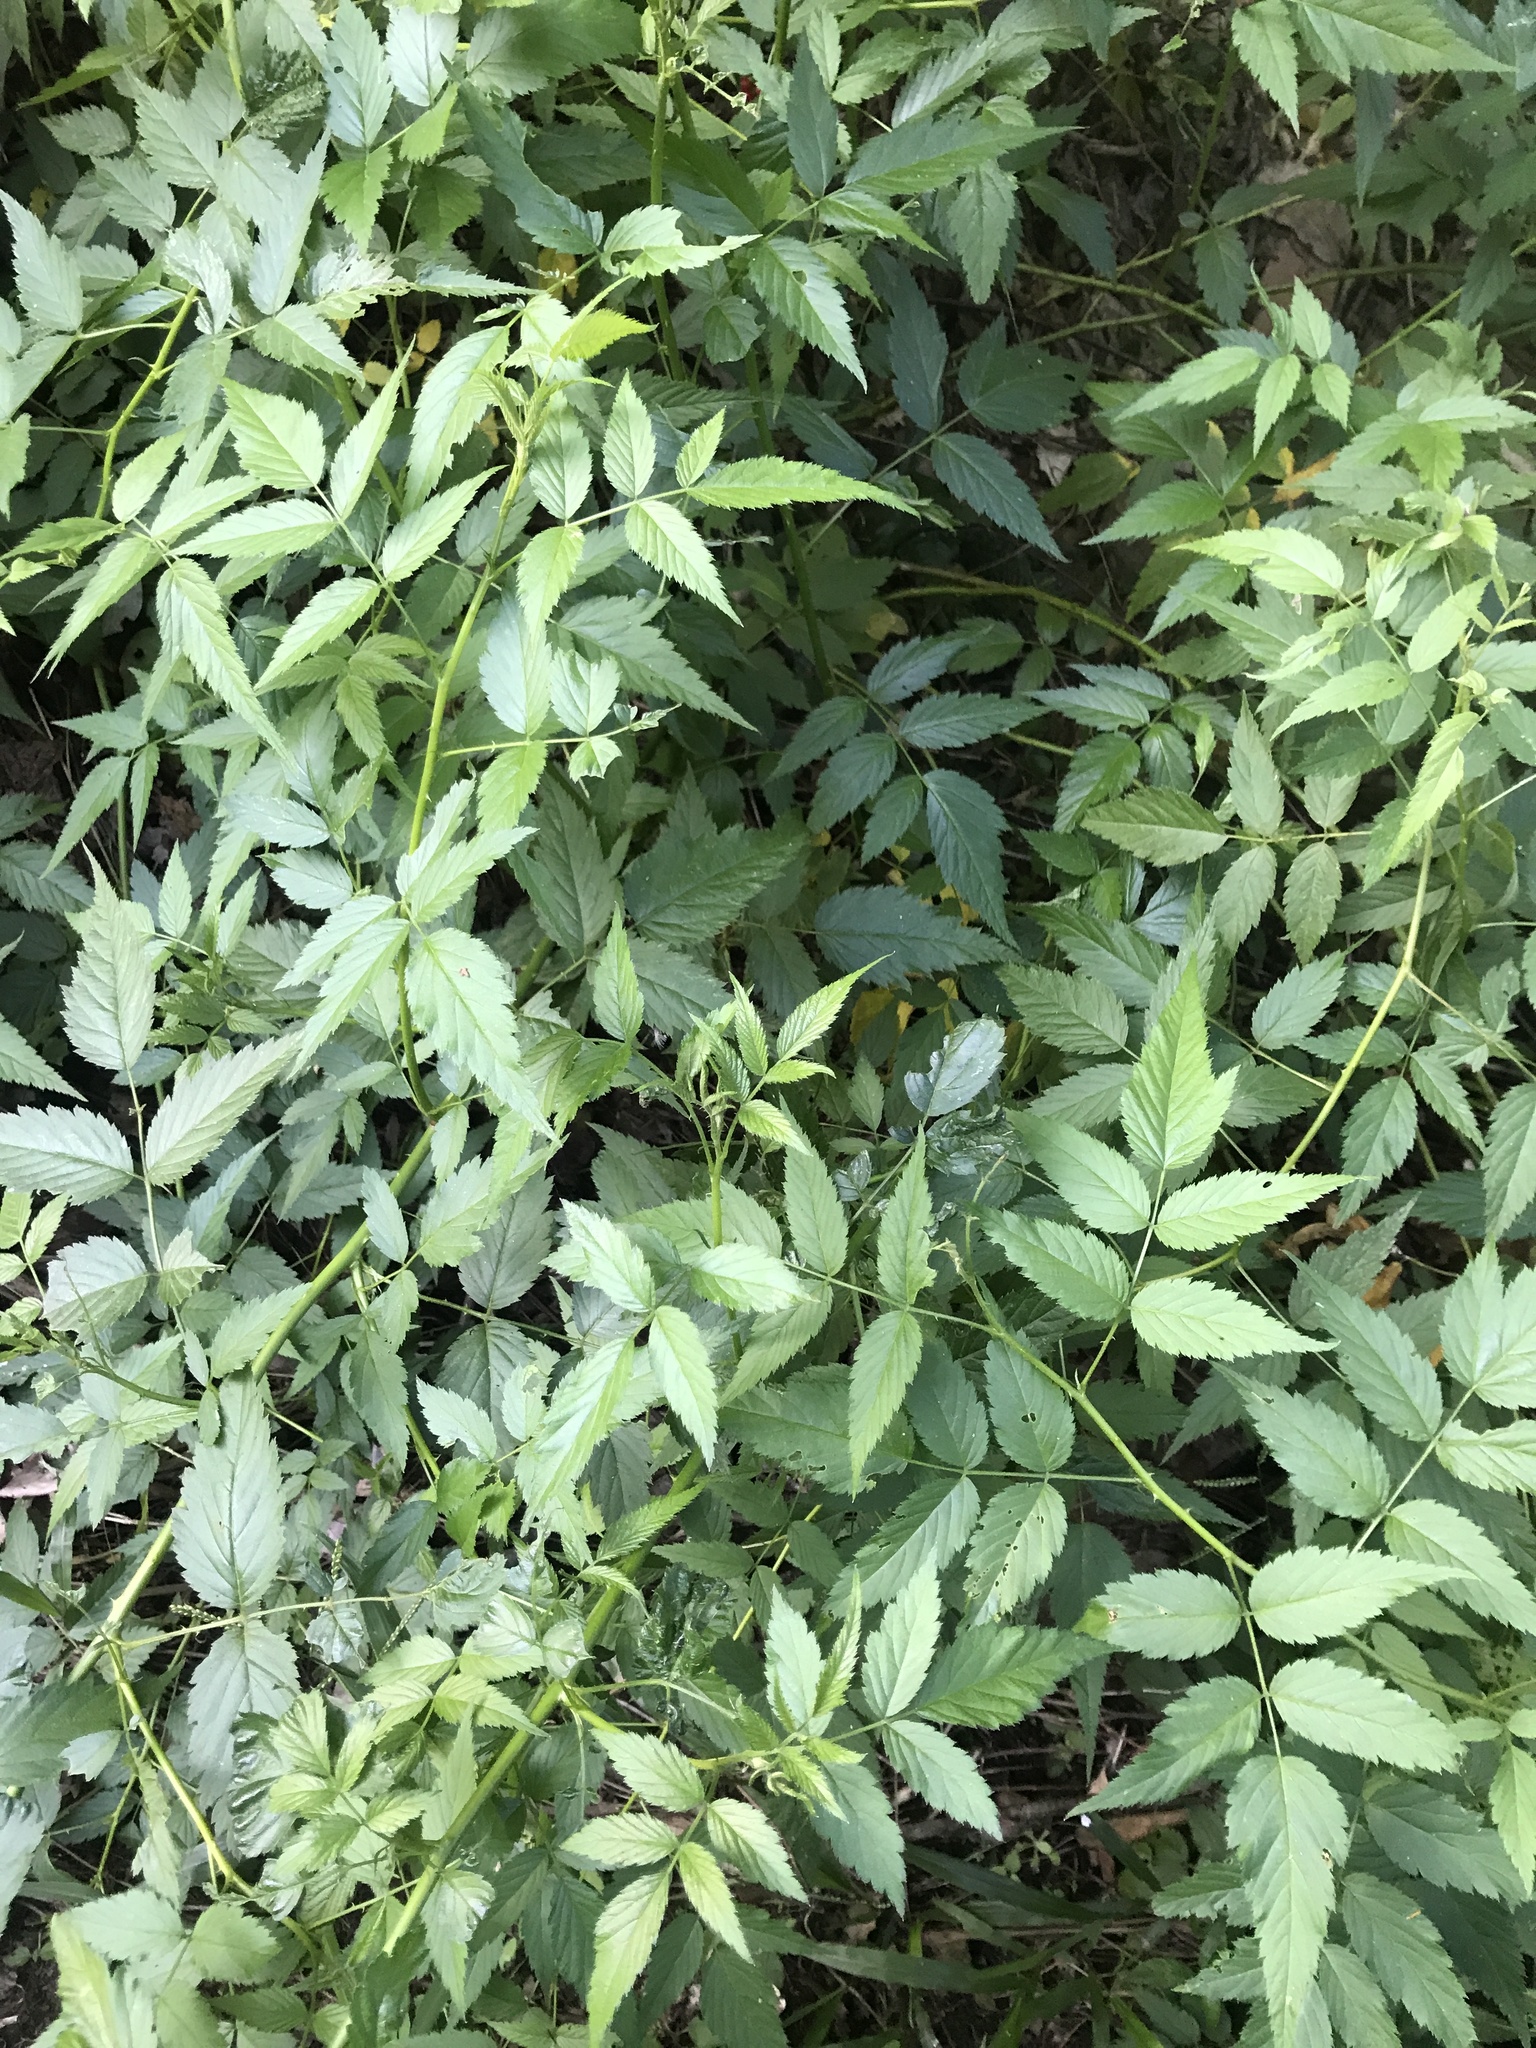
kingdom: Plantae
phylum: Tracheophyta
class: Magnoliopsida
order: Rosales
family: Rosaceae
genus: Rubus
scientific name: Rubus rosifolius
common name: Roseleaf raspberry
